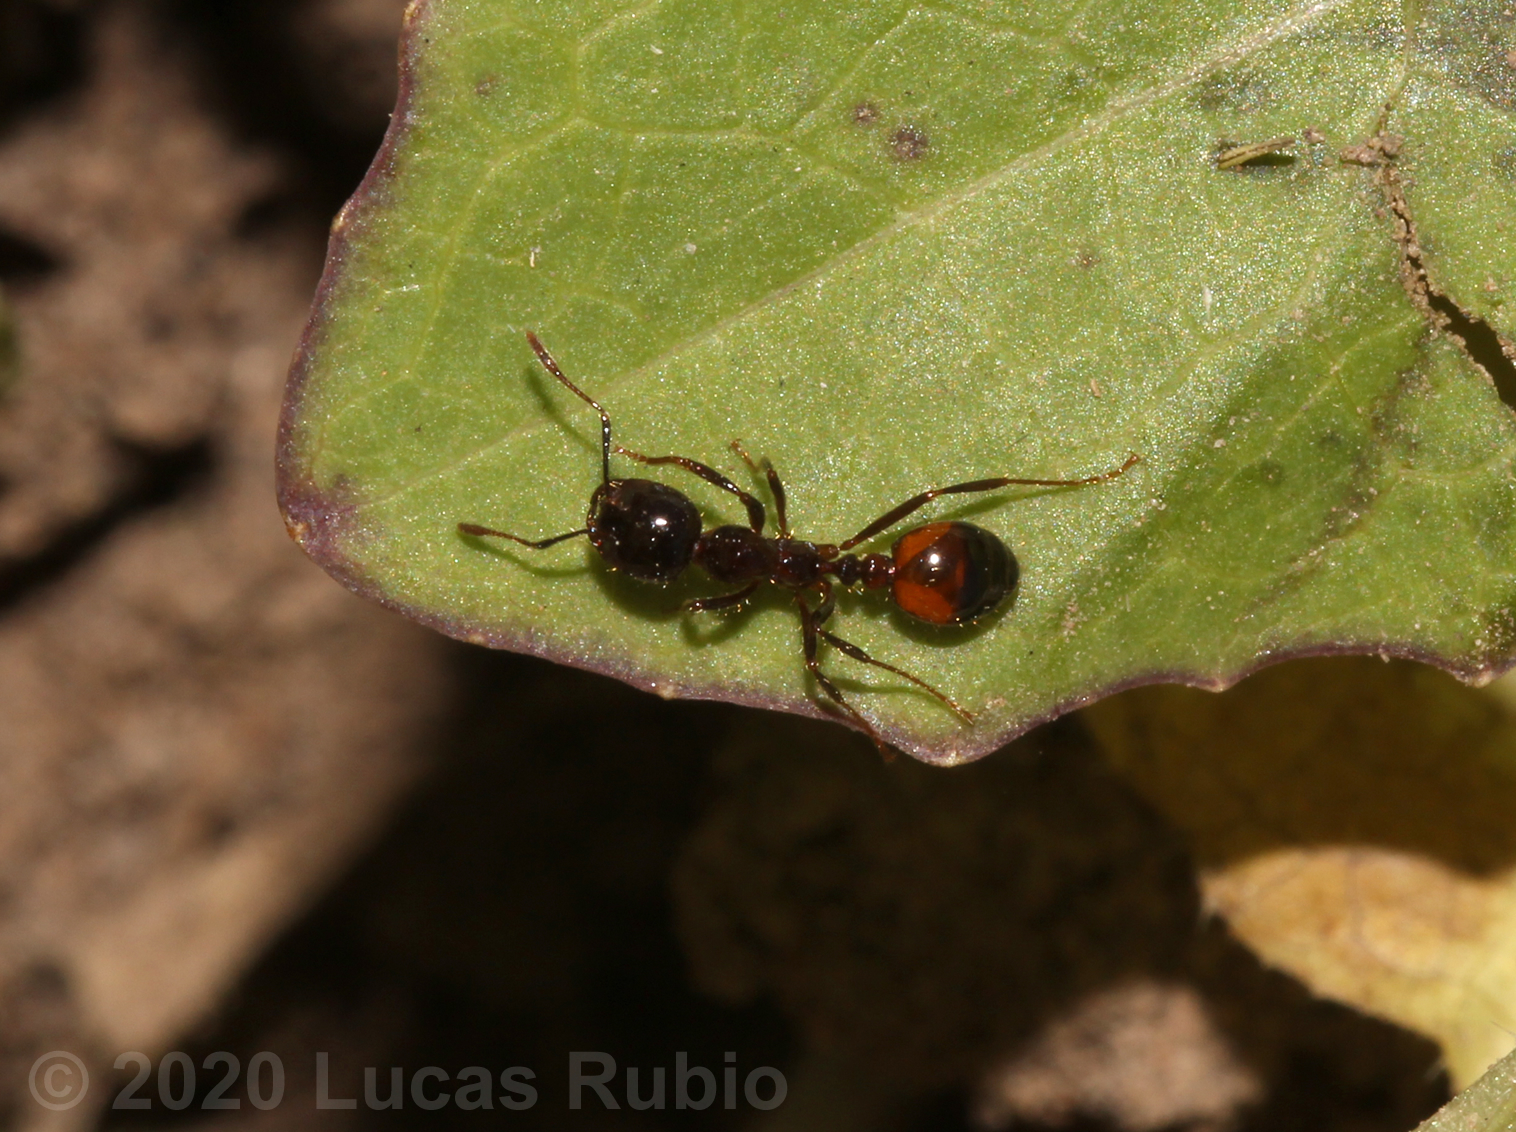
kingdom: Animalia
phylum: Arthropoda
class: Insecta
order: Hymenoptera
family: Formicidae
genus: Solenopsis
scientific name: Solenopsis richteri
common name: Black imported fire ant
